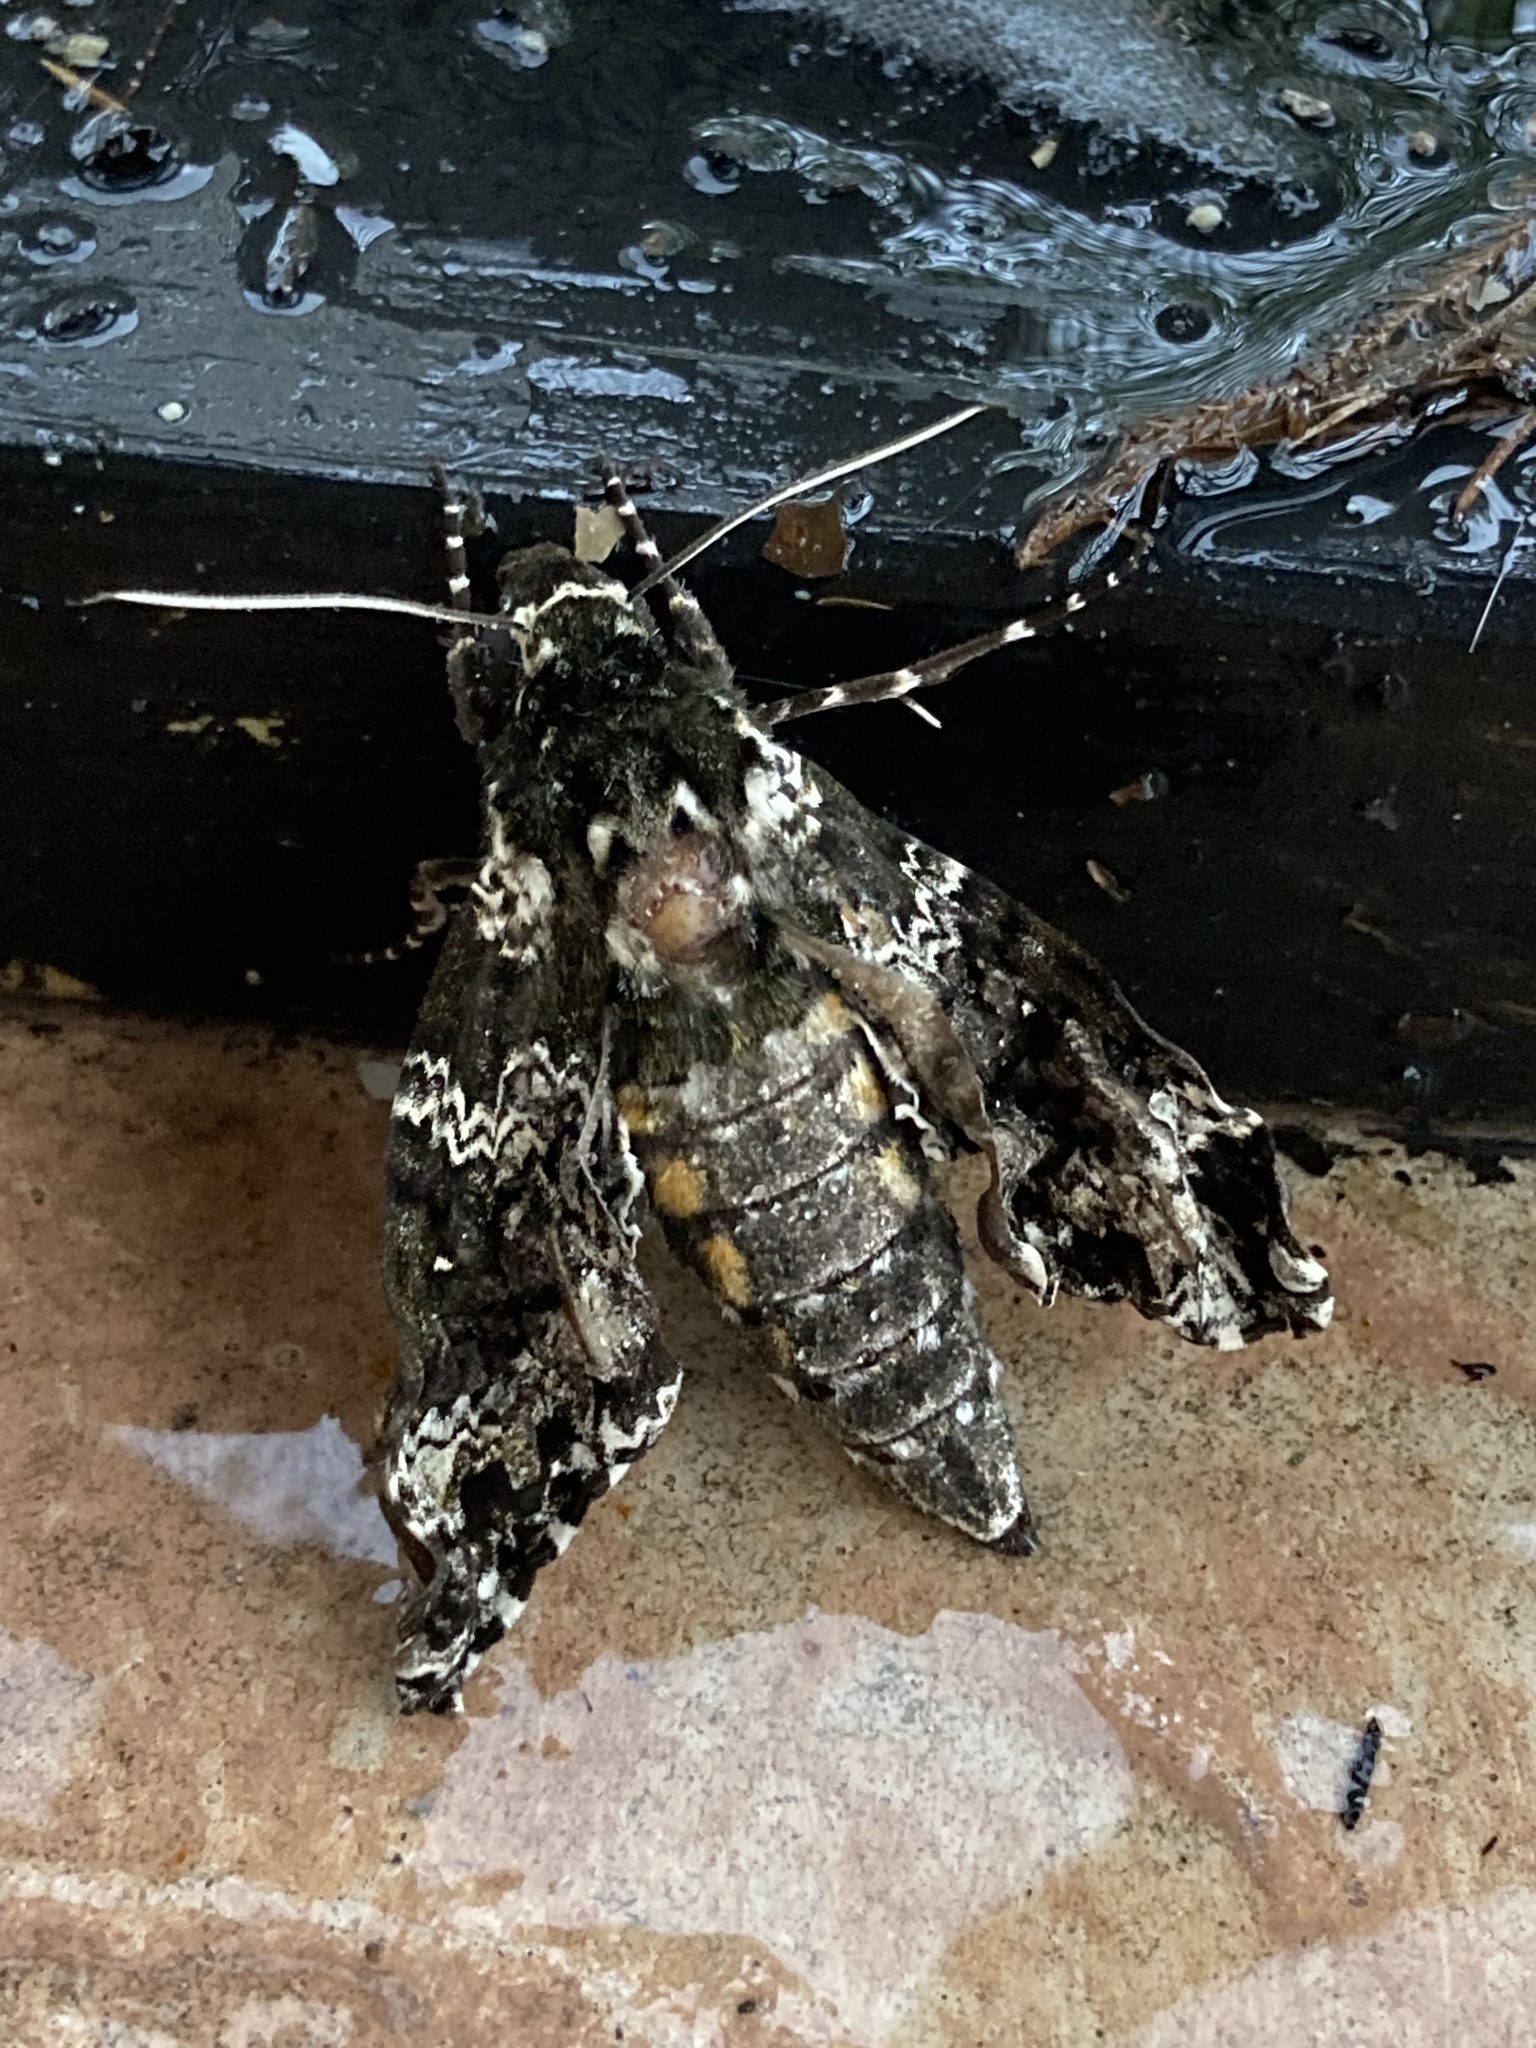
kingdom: Animalia
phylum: Arthropoda
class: Insecta
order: Lepidoptera
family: Sphingidae
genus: Manduca
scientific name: Manduca rustica
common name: Rustic sphinx
